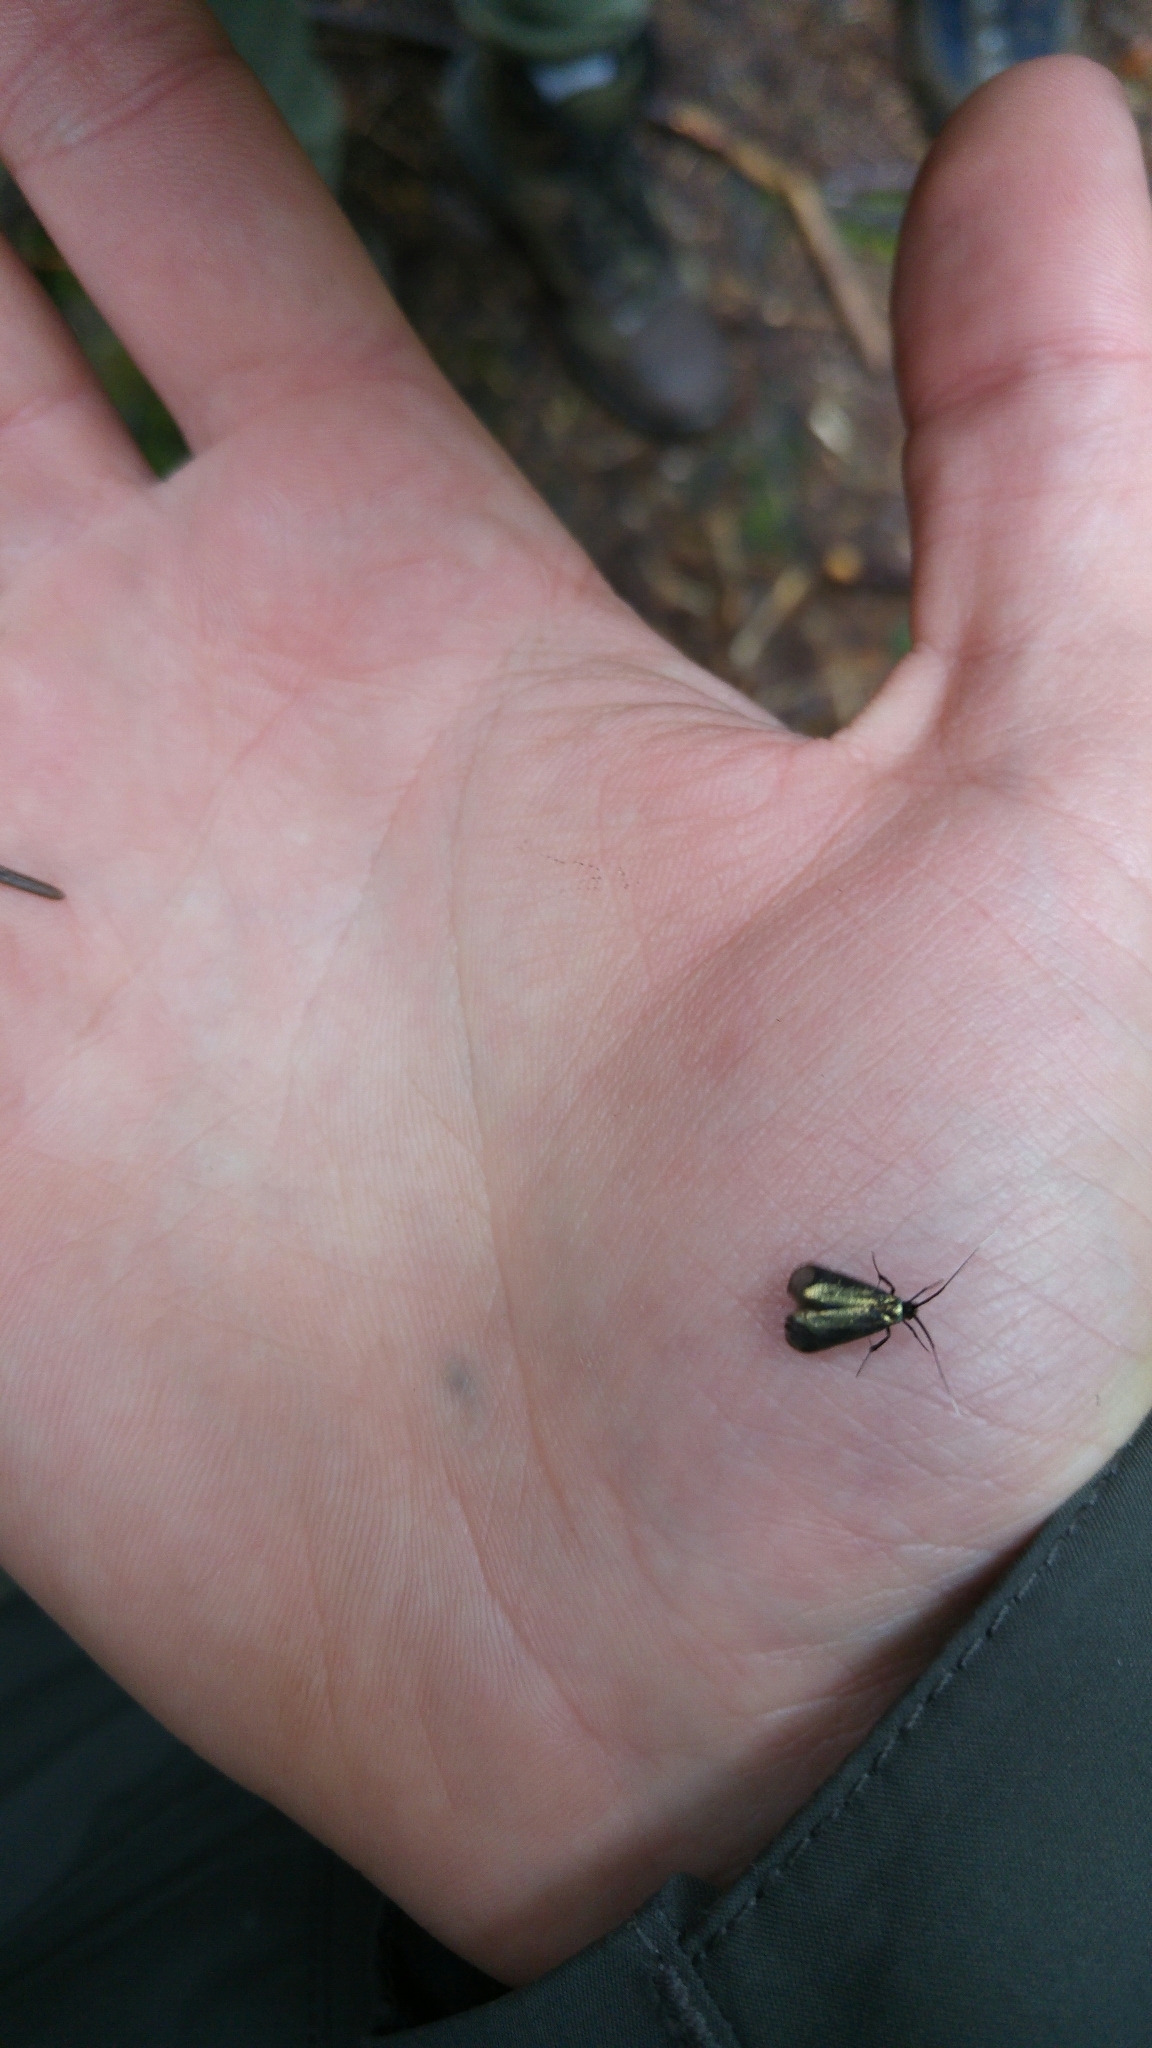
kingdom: Animalia
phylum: Arthropoda
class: Insecta
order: Lepidoptera
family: Adelidae
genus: Adela
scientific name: Adela viridella
